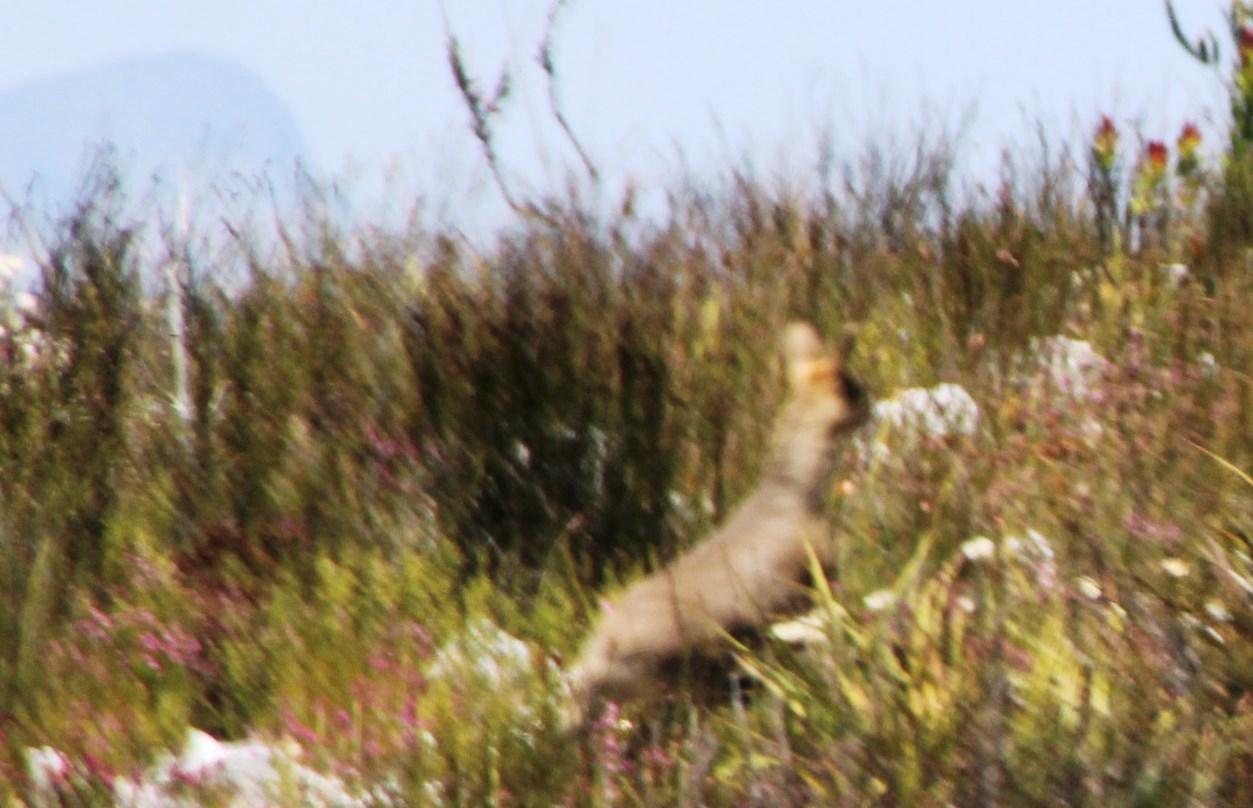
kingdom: Animalia
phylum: Chordata
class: Mammalia
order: Artiodactyla
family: Bovidae
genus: Oreotragus
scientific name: Oreotragus oreotragus
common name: Klipspringer
